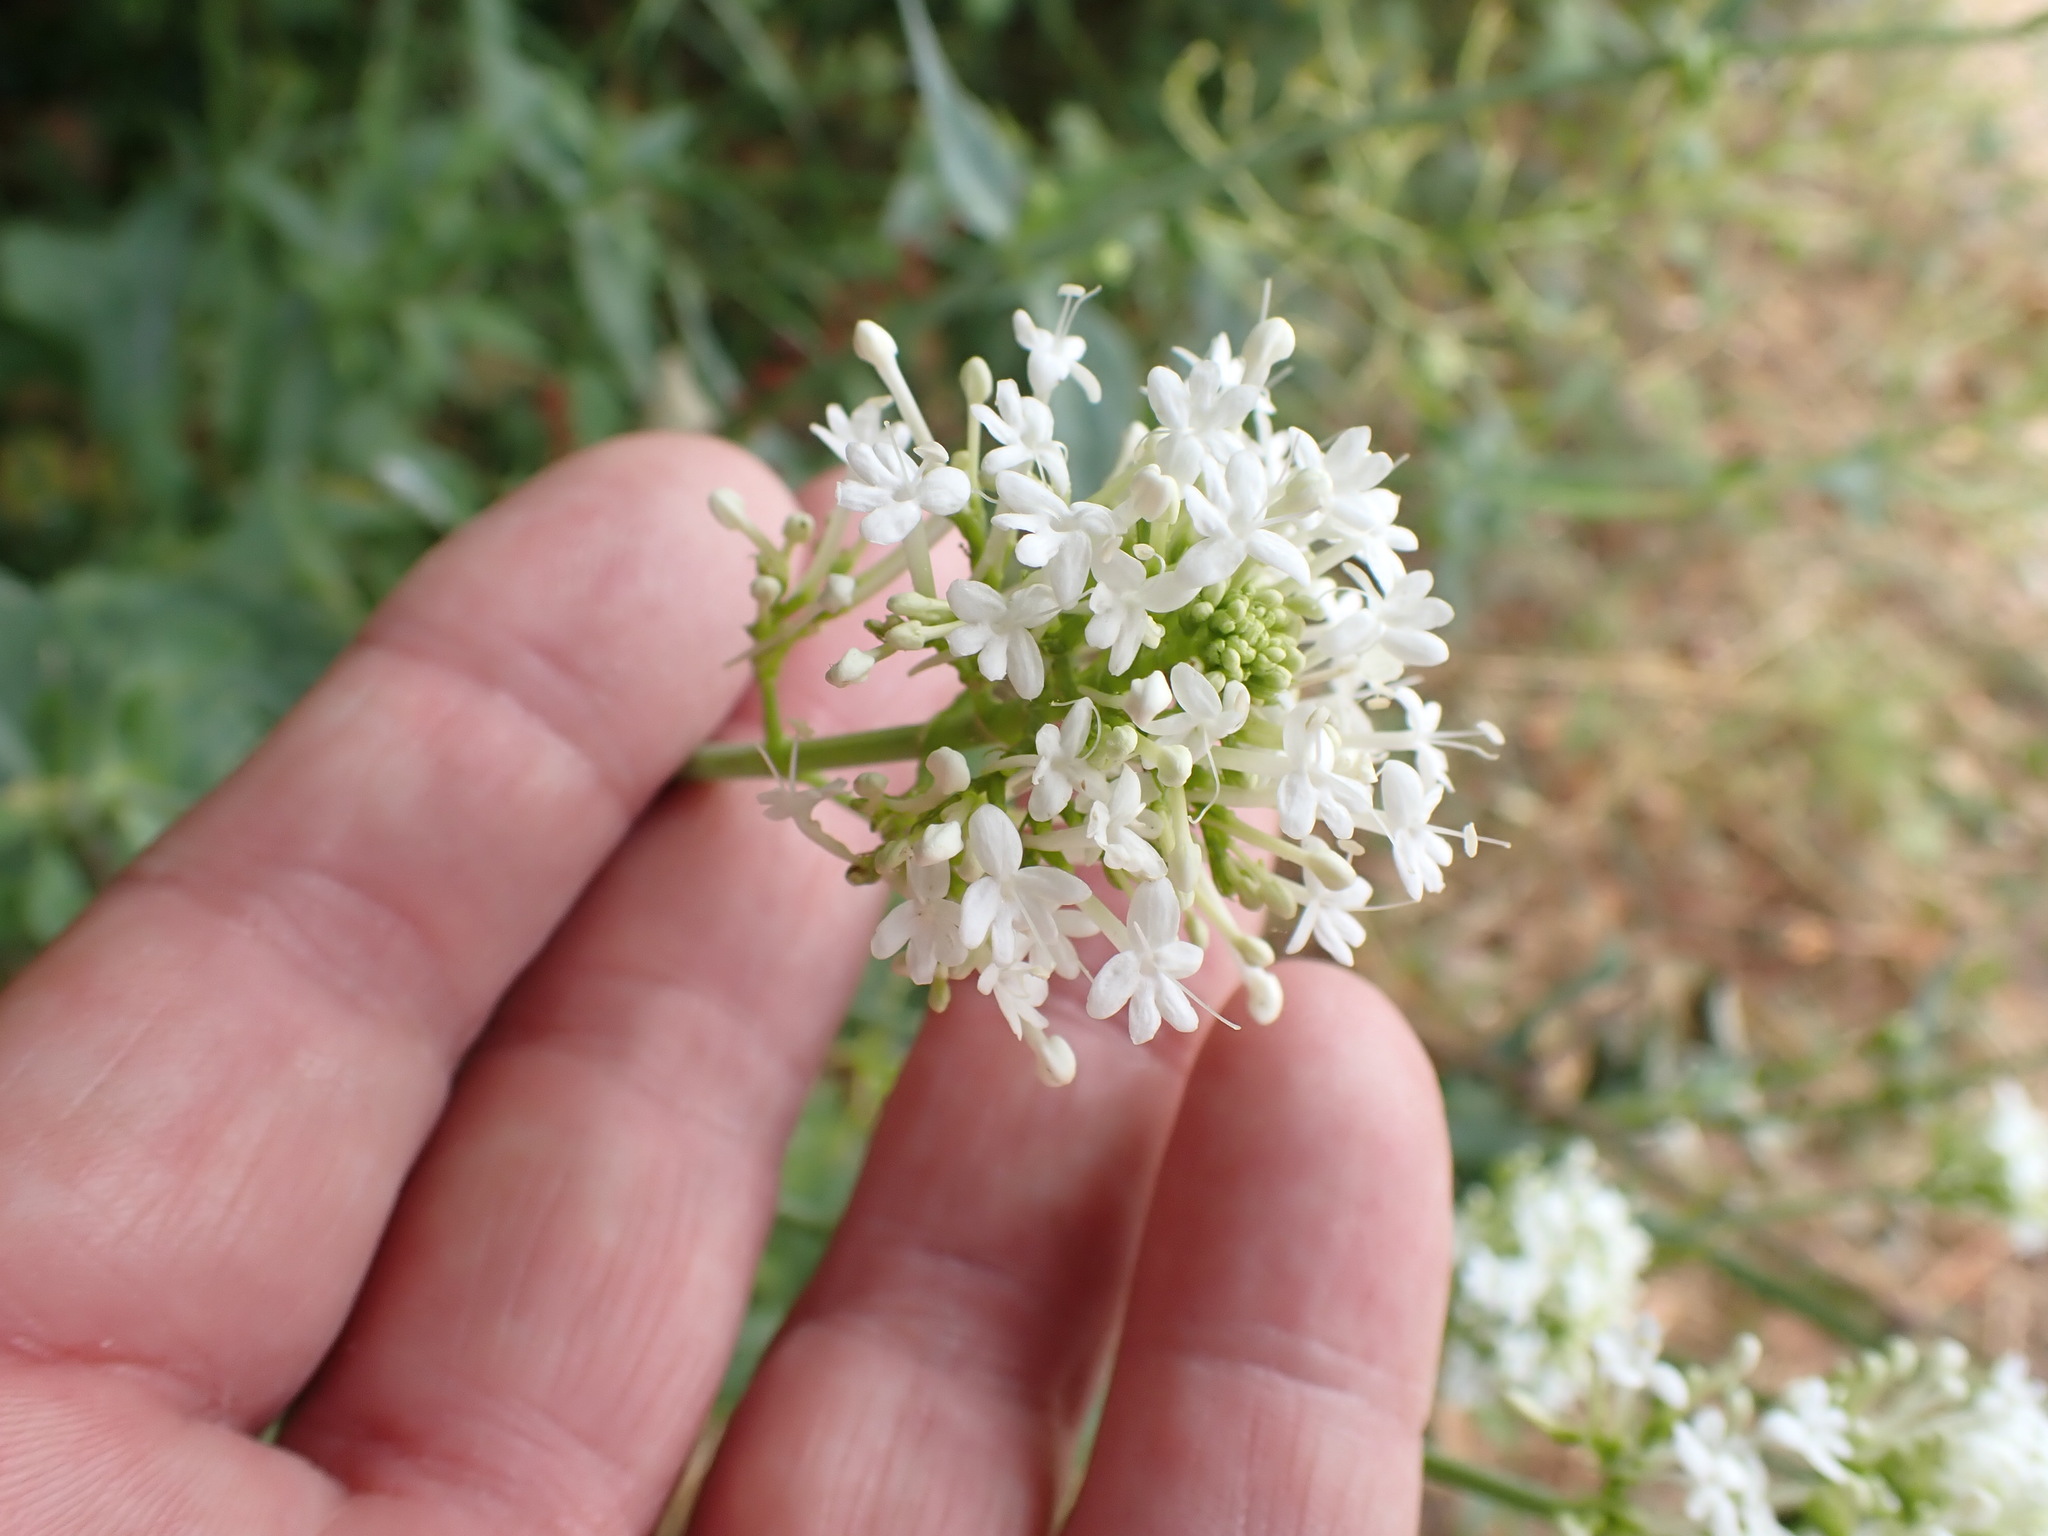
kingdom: Plantae
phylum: Tracheophyta
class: Magnoliopsida
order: Dipsacales
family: Caprifoliaceae
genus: Centranthus
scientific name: Centranthus ruber
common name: Red valerian
